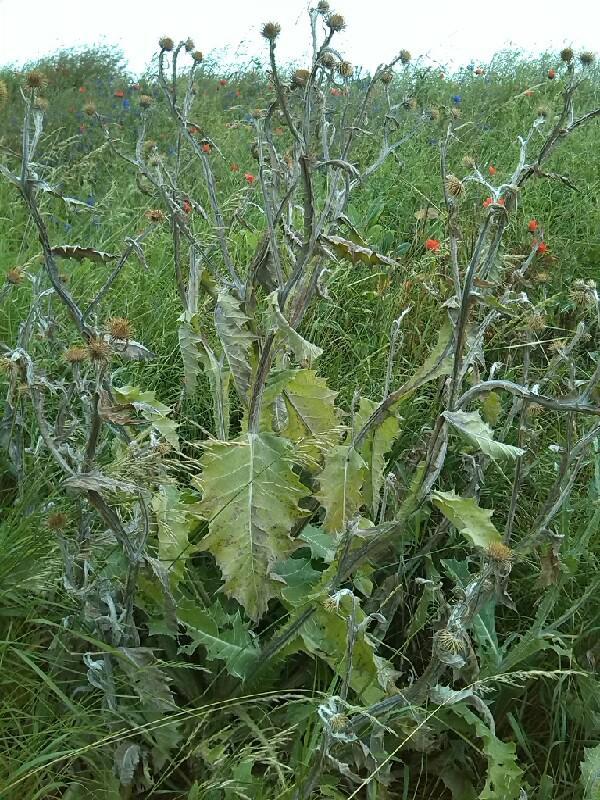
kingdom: Plantae
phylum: Tracheophyta
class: Magnoliopsida
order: Asterales
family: Asteraceae
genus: Onopordum
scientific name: Onopordum acanthium
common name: Scotch thistle
